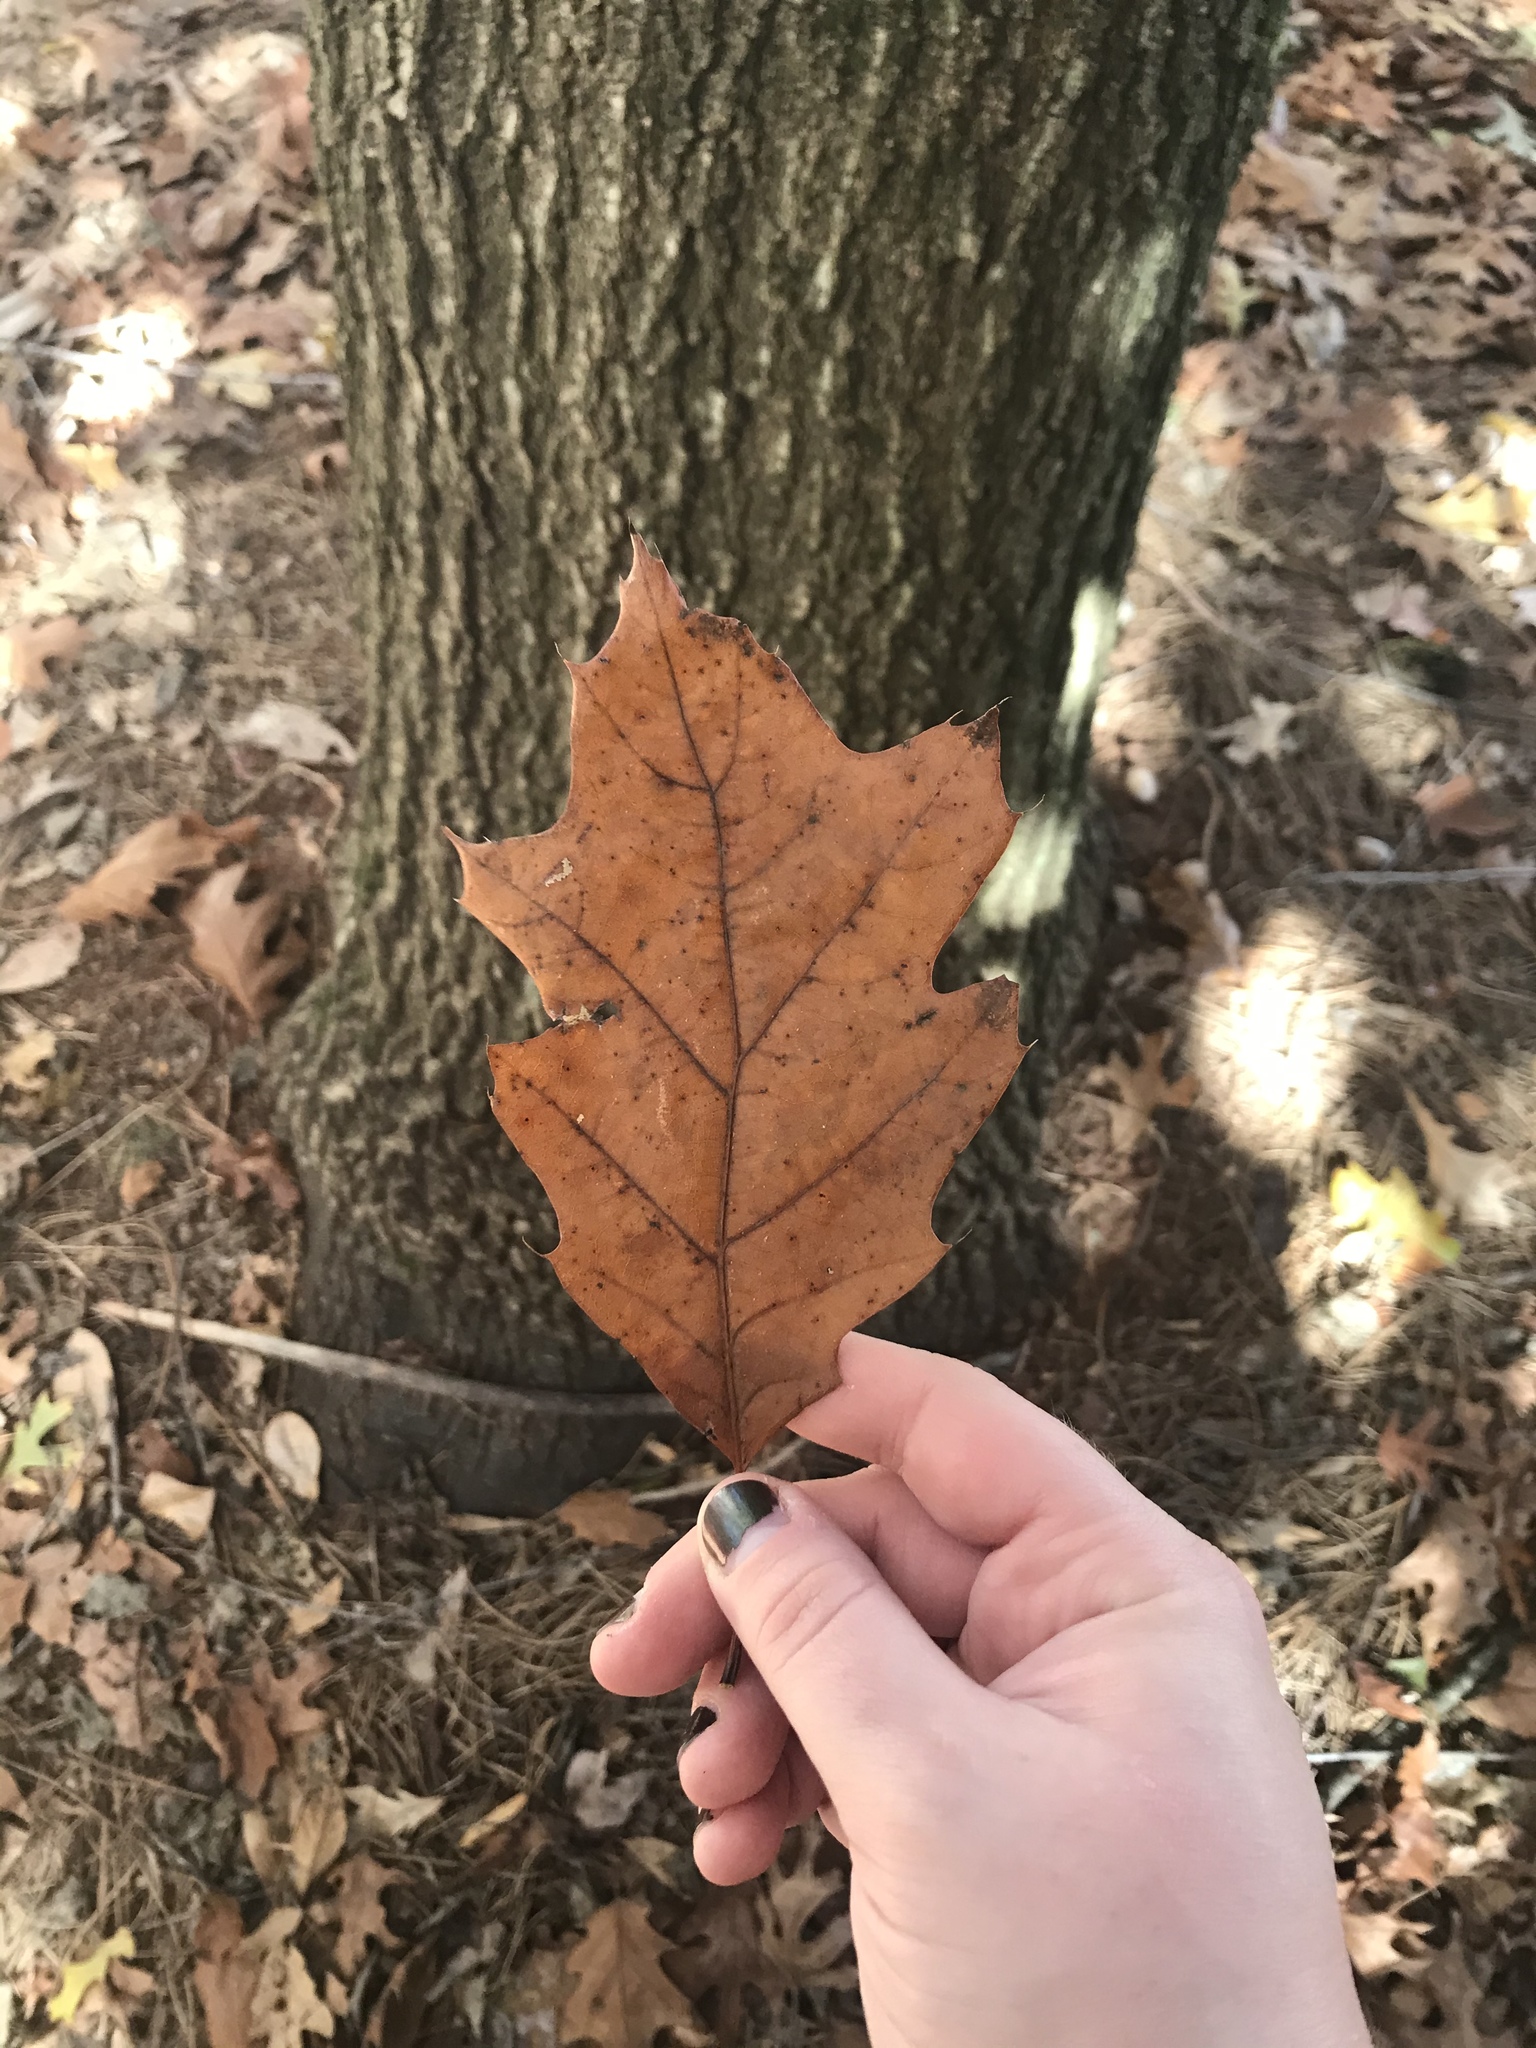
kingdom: Plantae
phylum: Tracheophyta
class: Magnoliopsida
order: Fagales
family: Fagaceae
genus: Quercus
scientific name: Quercus rubra
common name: Red oak
